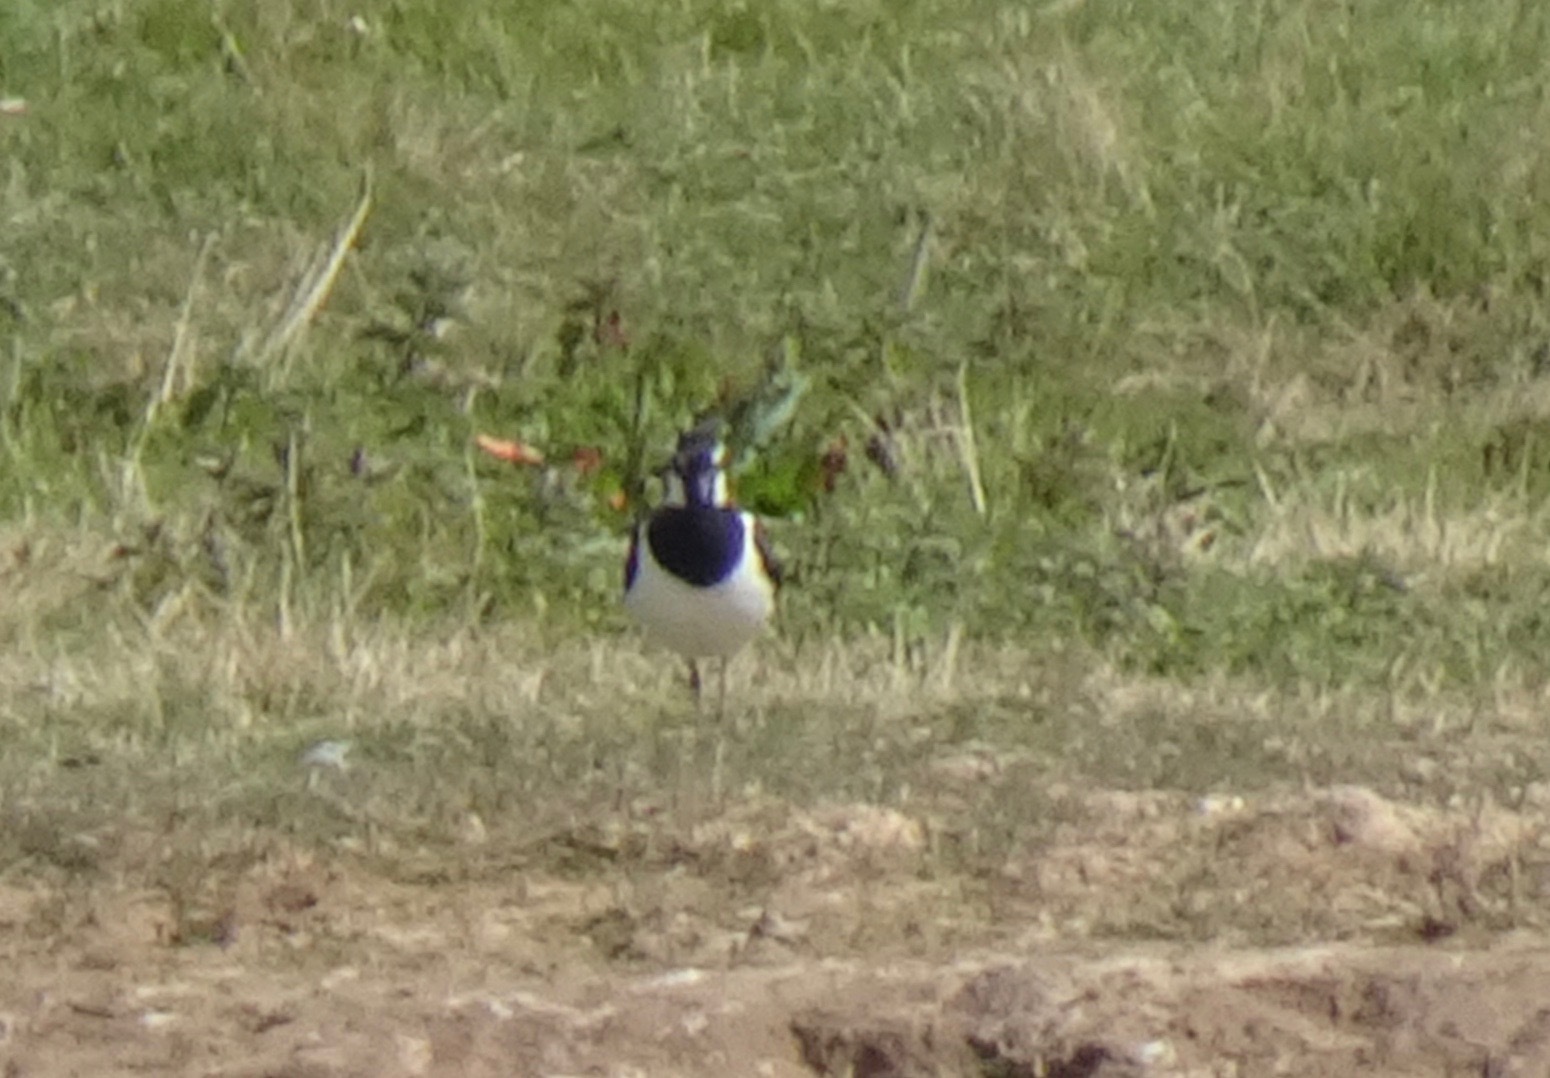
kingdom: Animalia
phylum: Chordata
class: Aves
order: Charadriiformes
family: Charadriidae
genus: Vanellus
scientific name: Vanellus vanellus
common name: Northern lapwing
